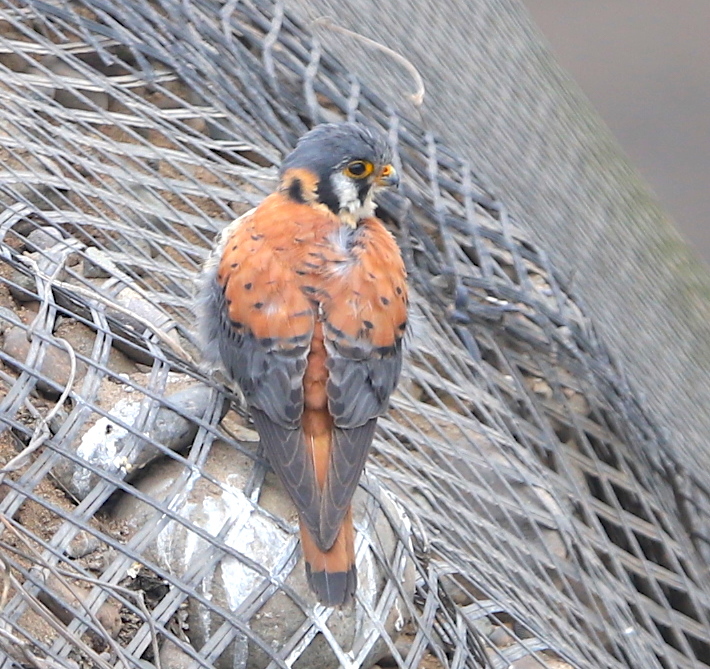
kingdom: Animalia
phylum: Chordata
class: Aves
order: Falconiformes
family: Falconidae
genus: Falco
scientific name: Falco sparverius
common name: American kestrel
